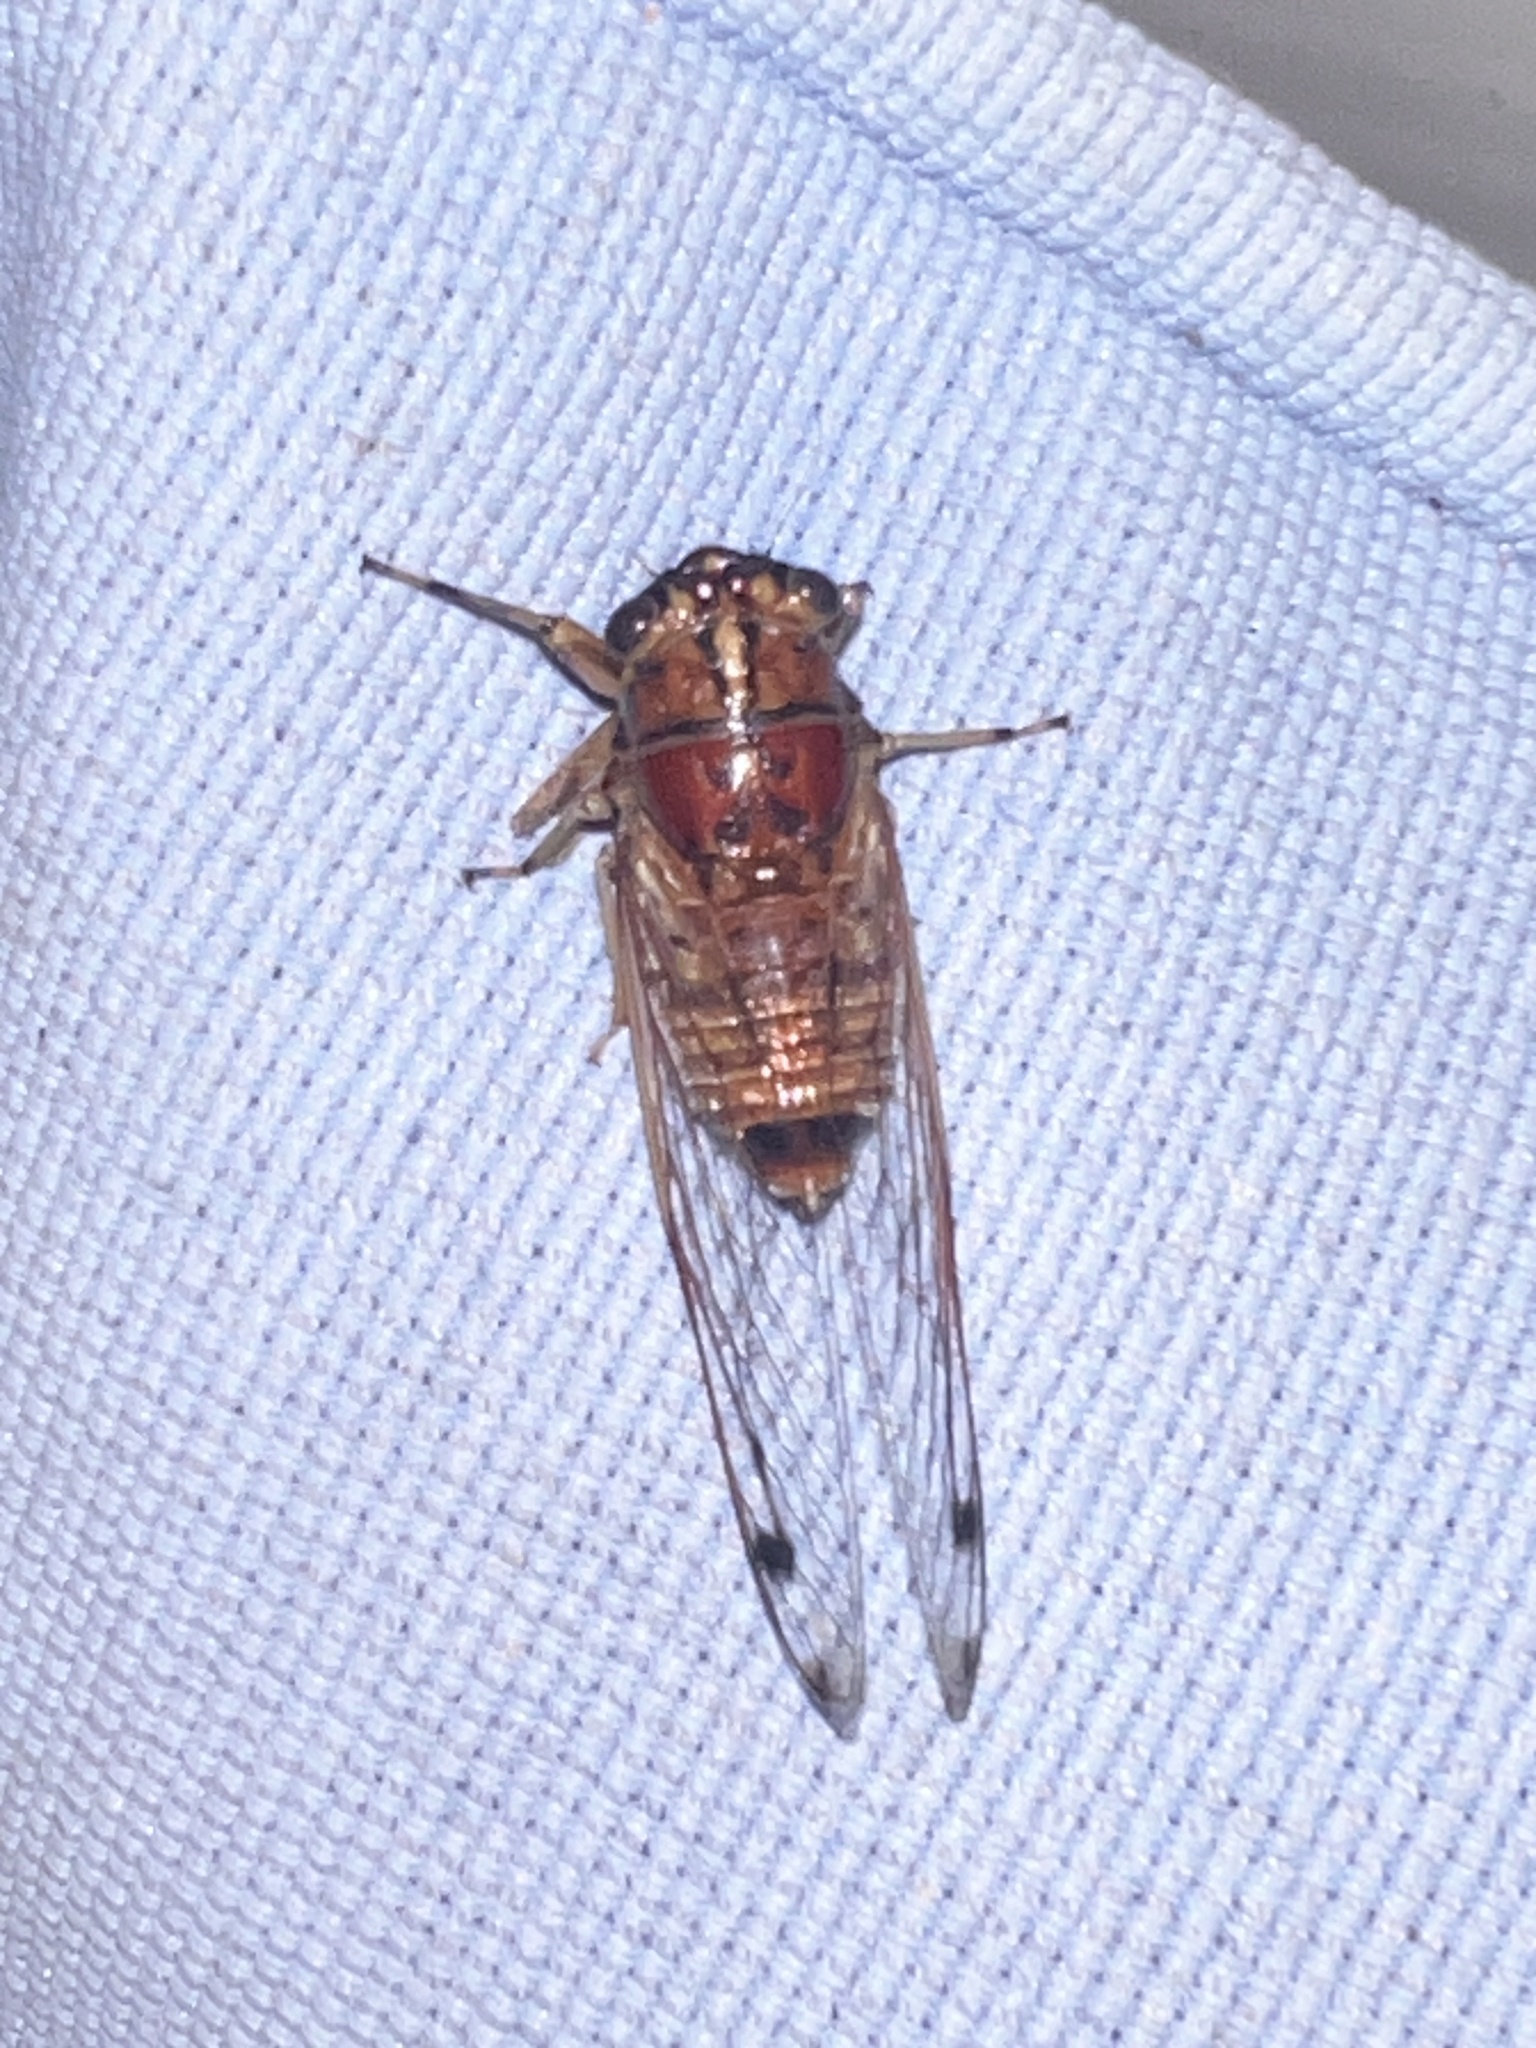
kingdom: Animalia
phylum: Arthropoda
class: Insecta
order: Hemiptera
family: Cicadidae
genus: Tamasa
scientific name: Tamasa burgessi
